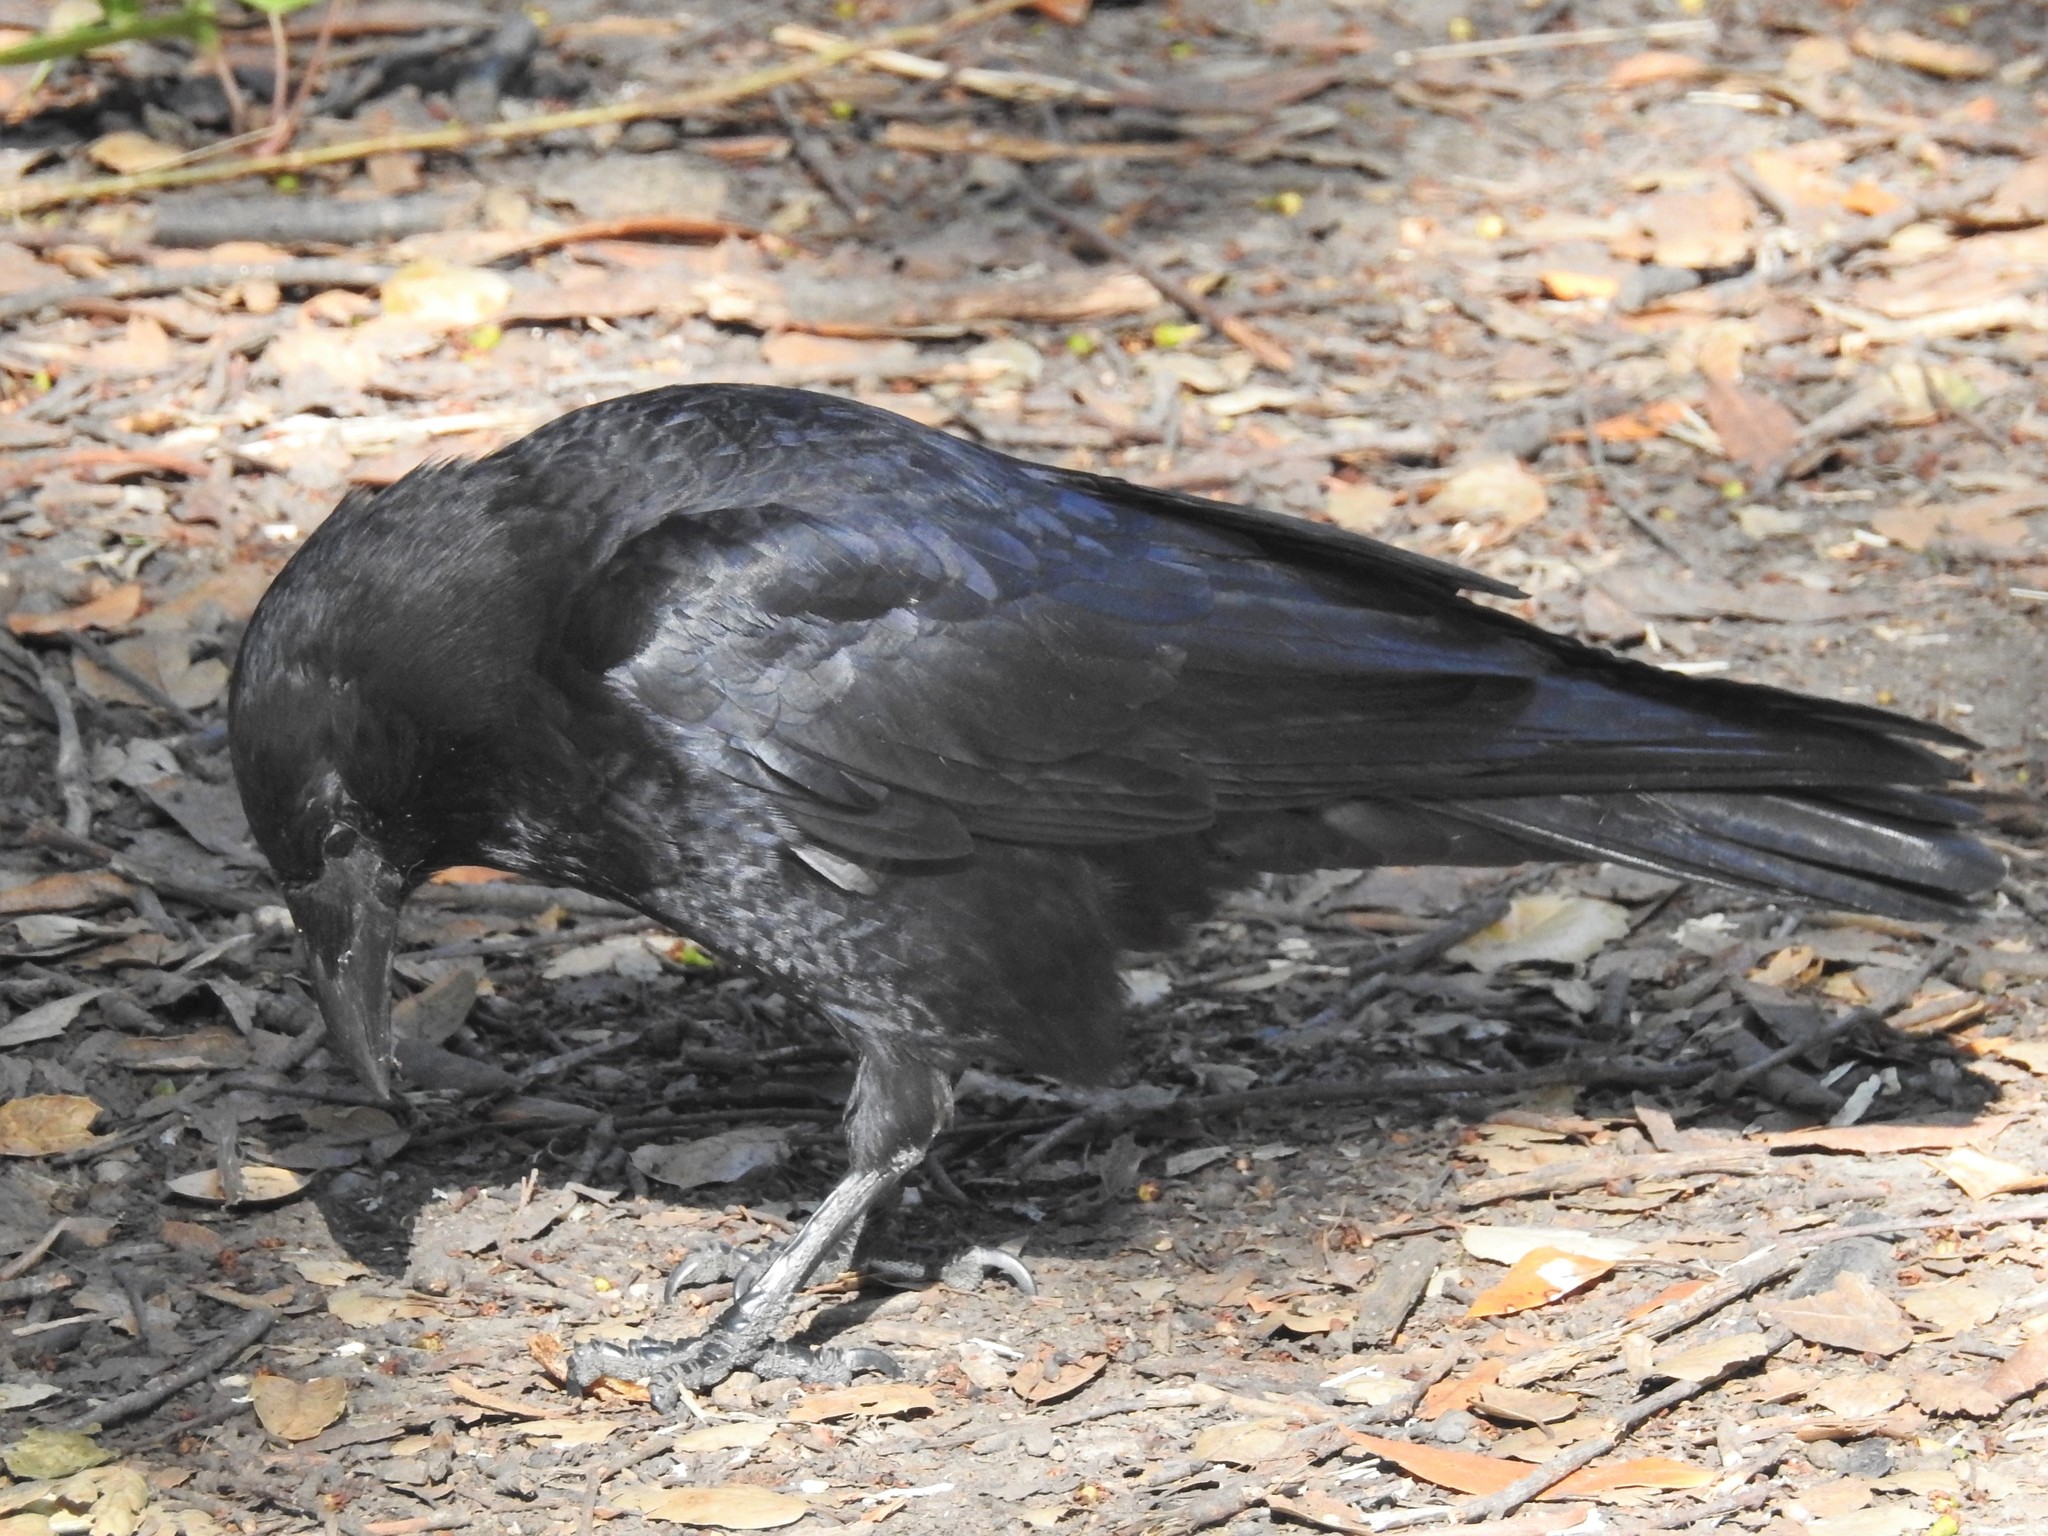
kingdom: Animalia
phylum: Chordata
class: Aves
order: Passeriformes
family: Corvidae
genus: Corvus
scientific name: Corvus brachyrhynchos
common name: American crow
